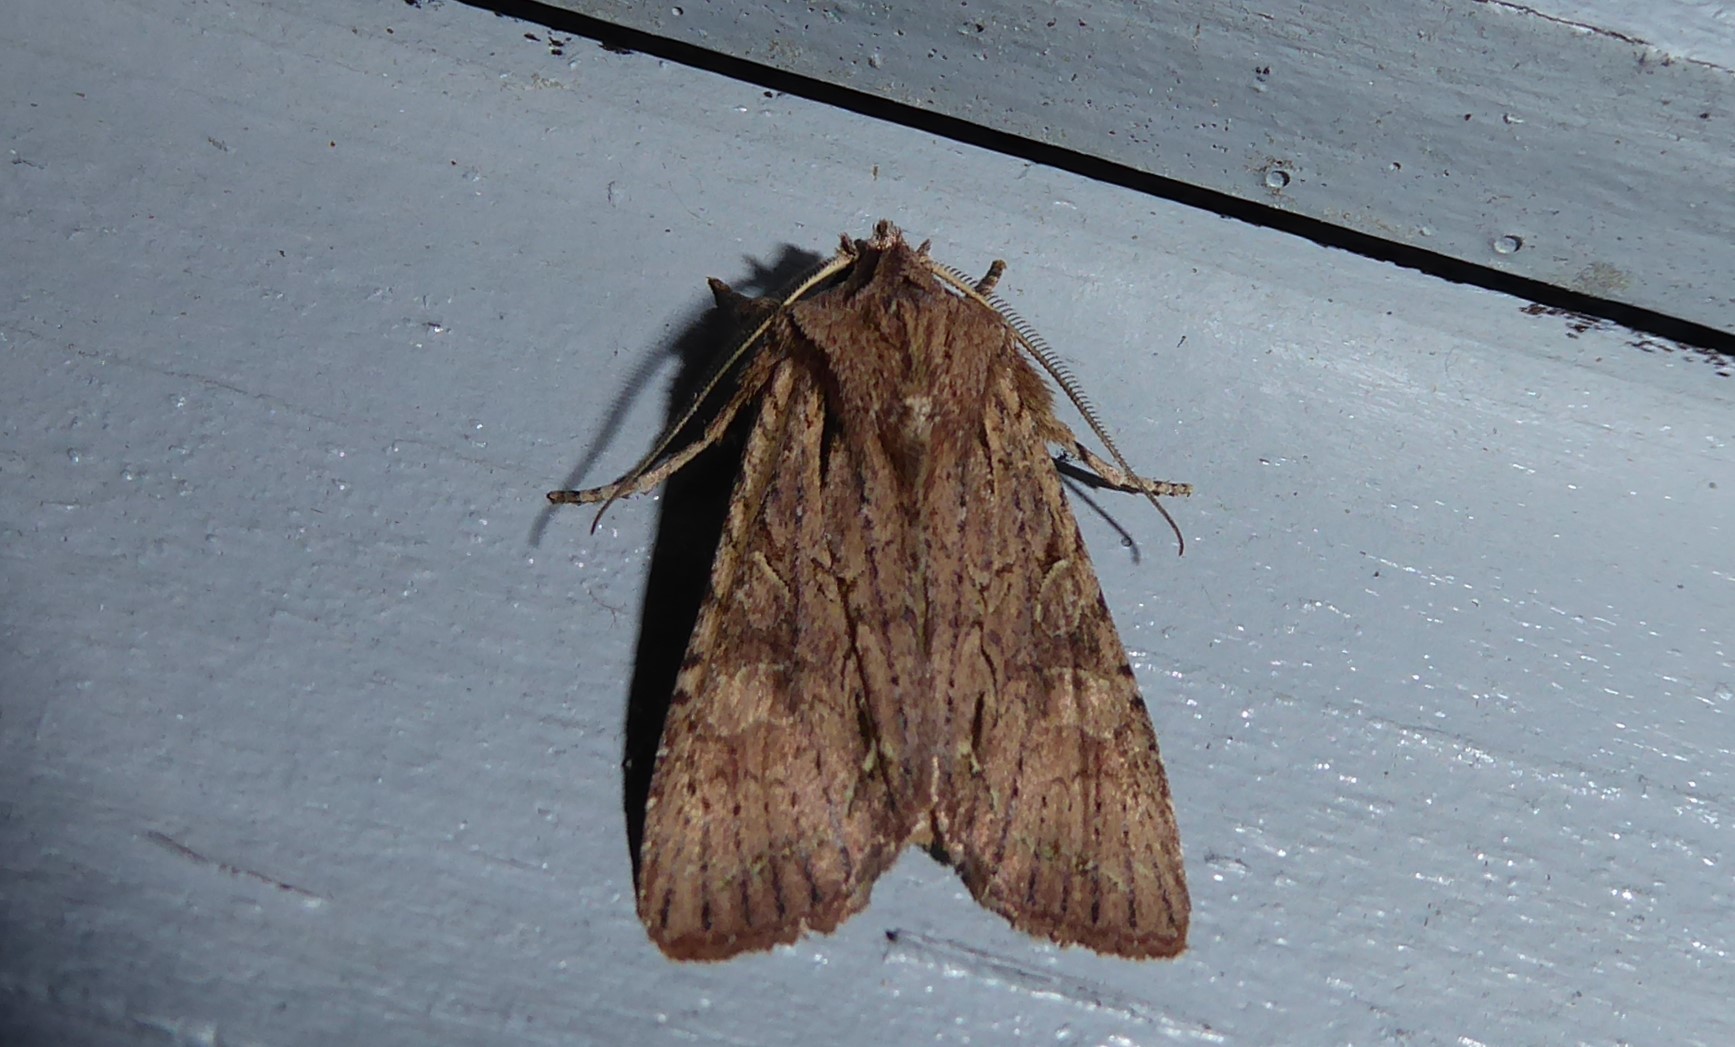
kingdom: Animalia
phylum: Arthropoda
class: Insecta
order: Lepidoptera
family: Noctuidae
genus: Ichneutica
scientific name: Ichneutica
